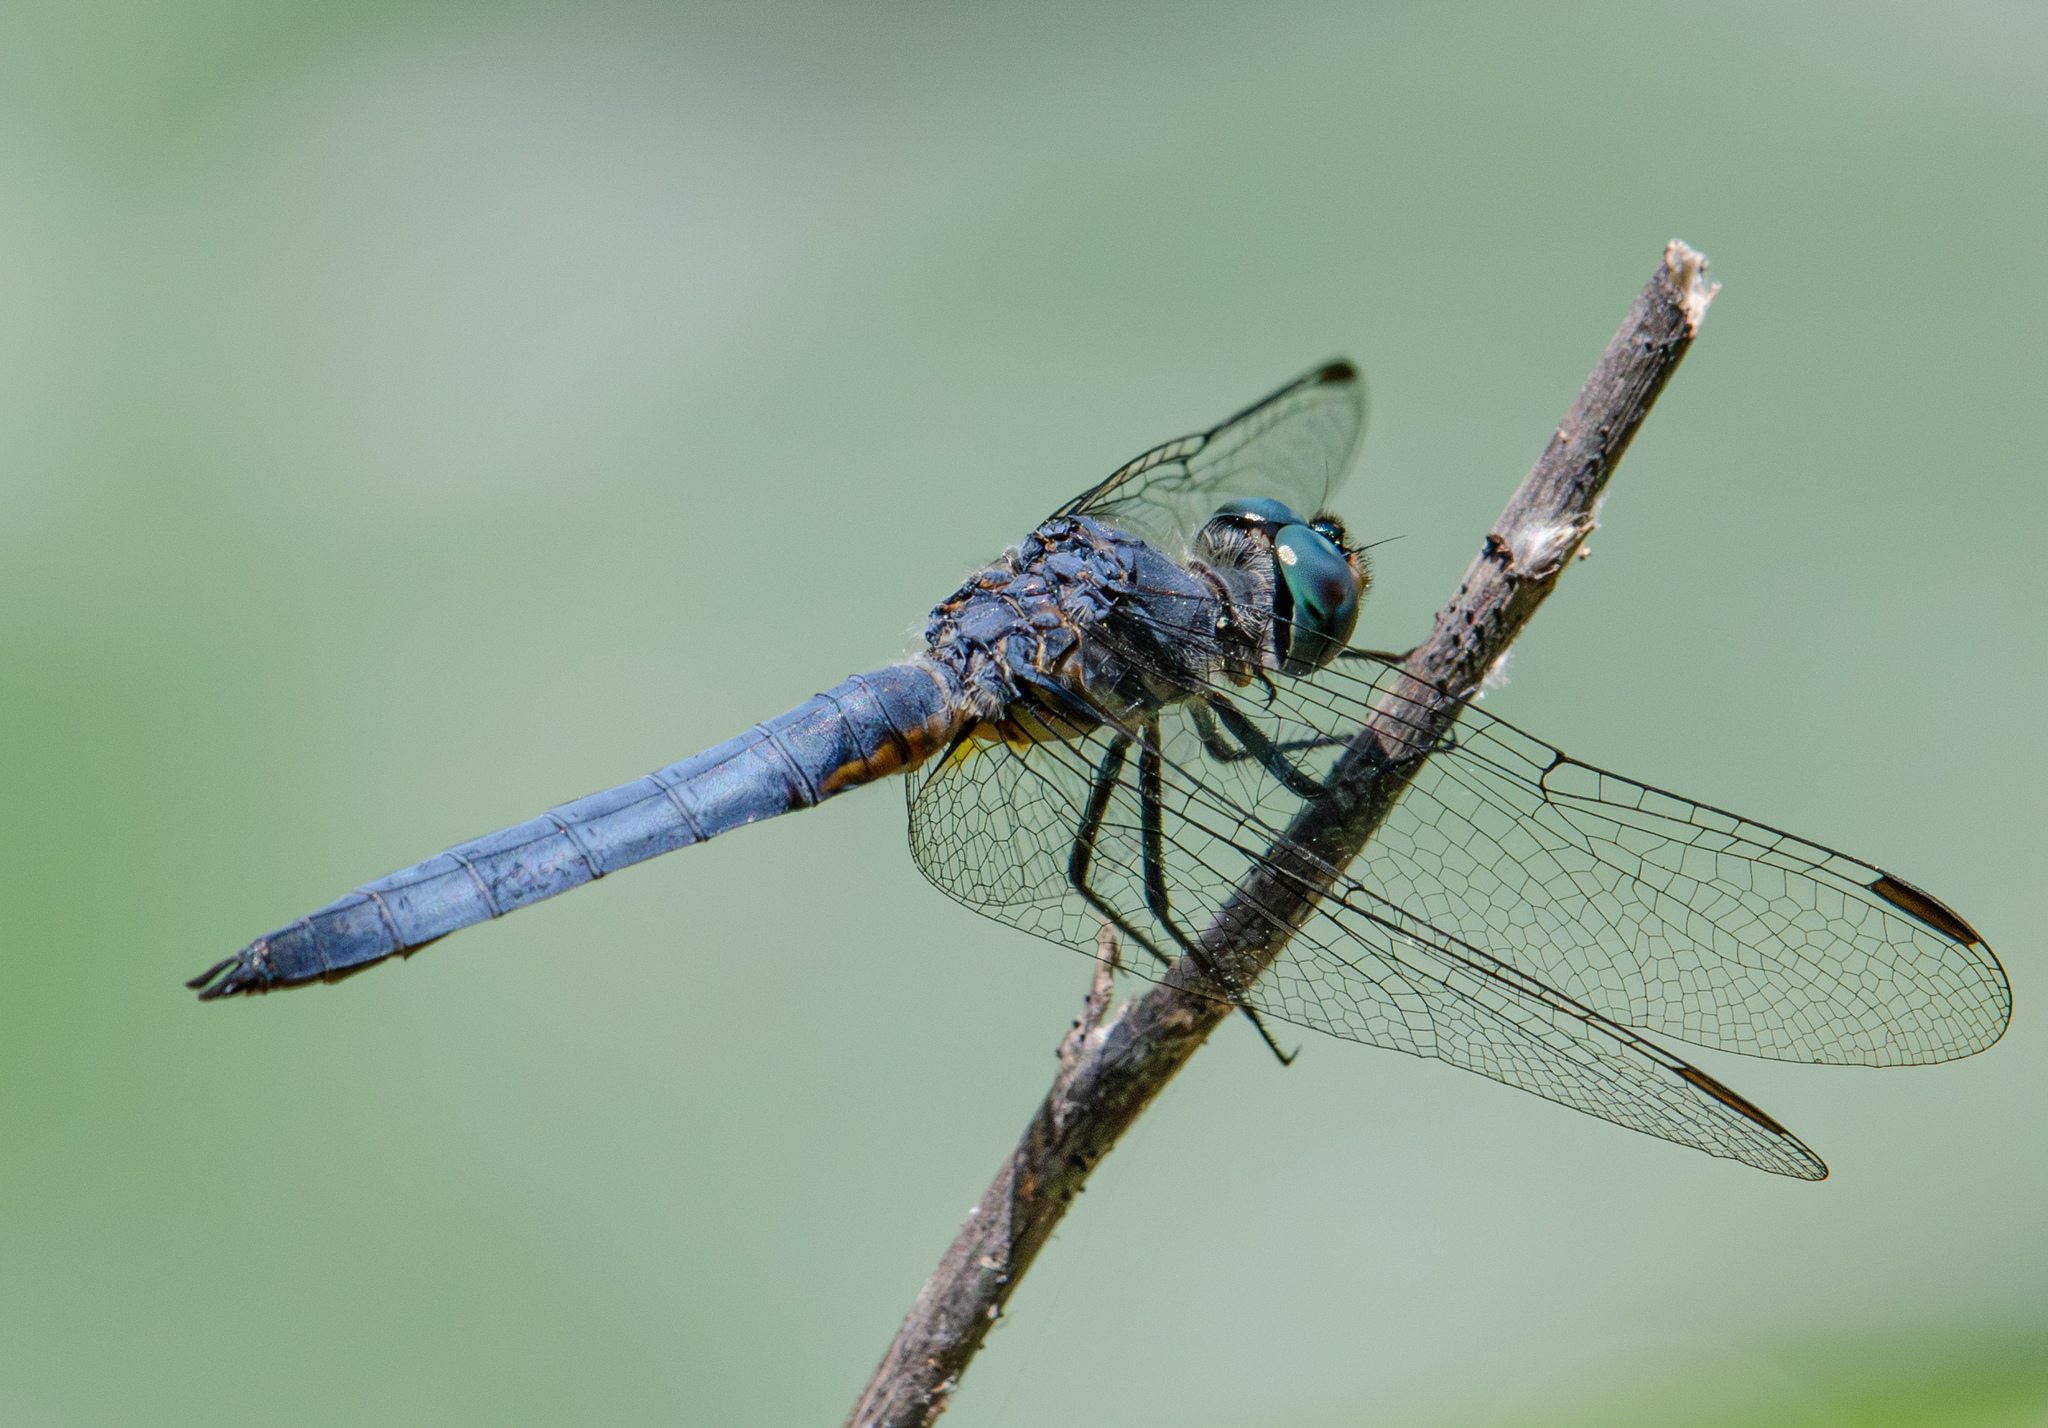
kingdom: Animalia
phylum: Arthropoda
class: Insecta
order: Odonata
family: Libellulidae
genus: Pachydiplax
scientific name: Pachydiplax longipennis
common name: Blue dasher
